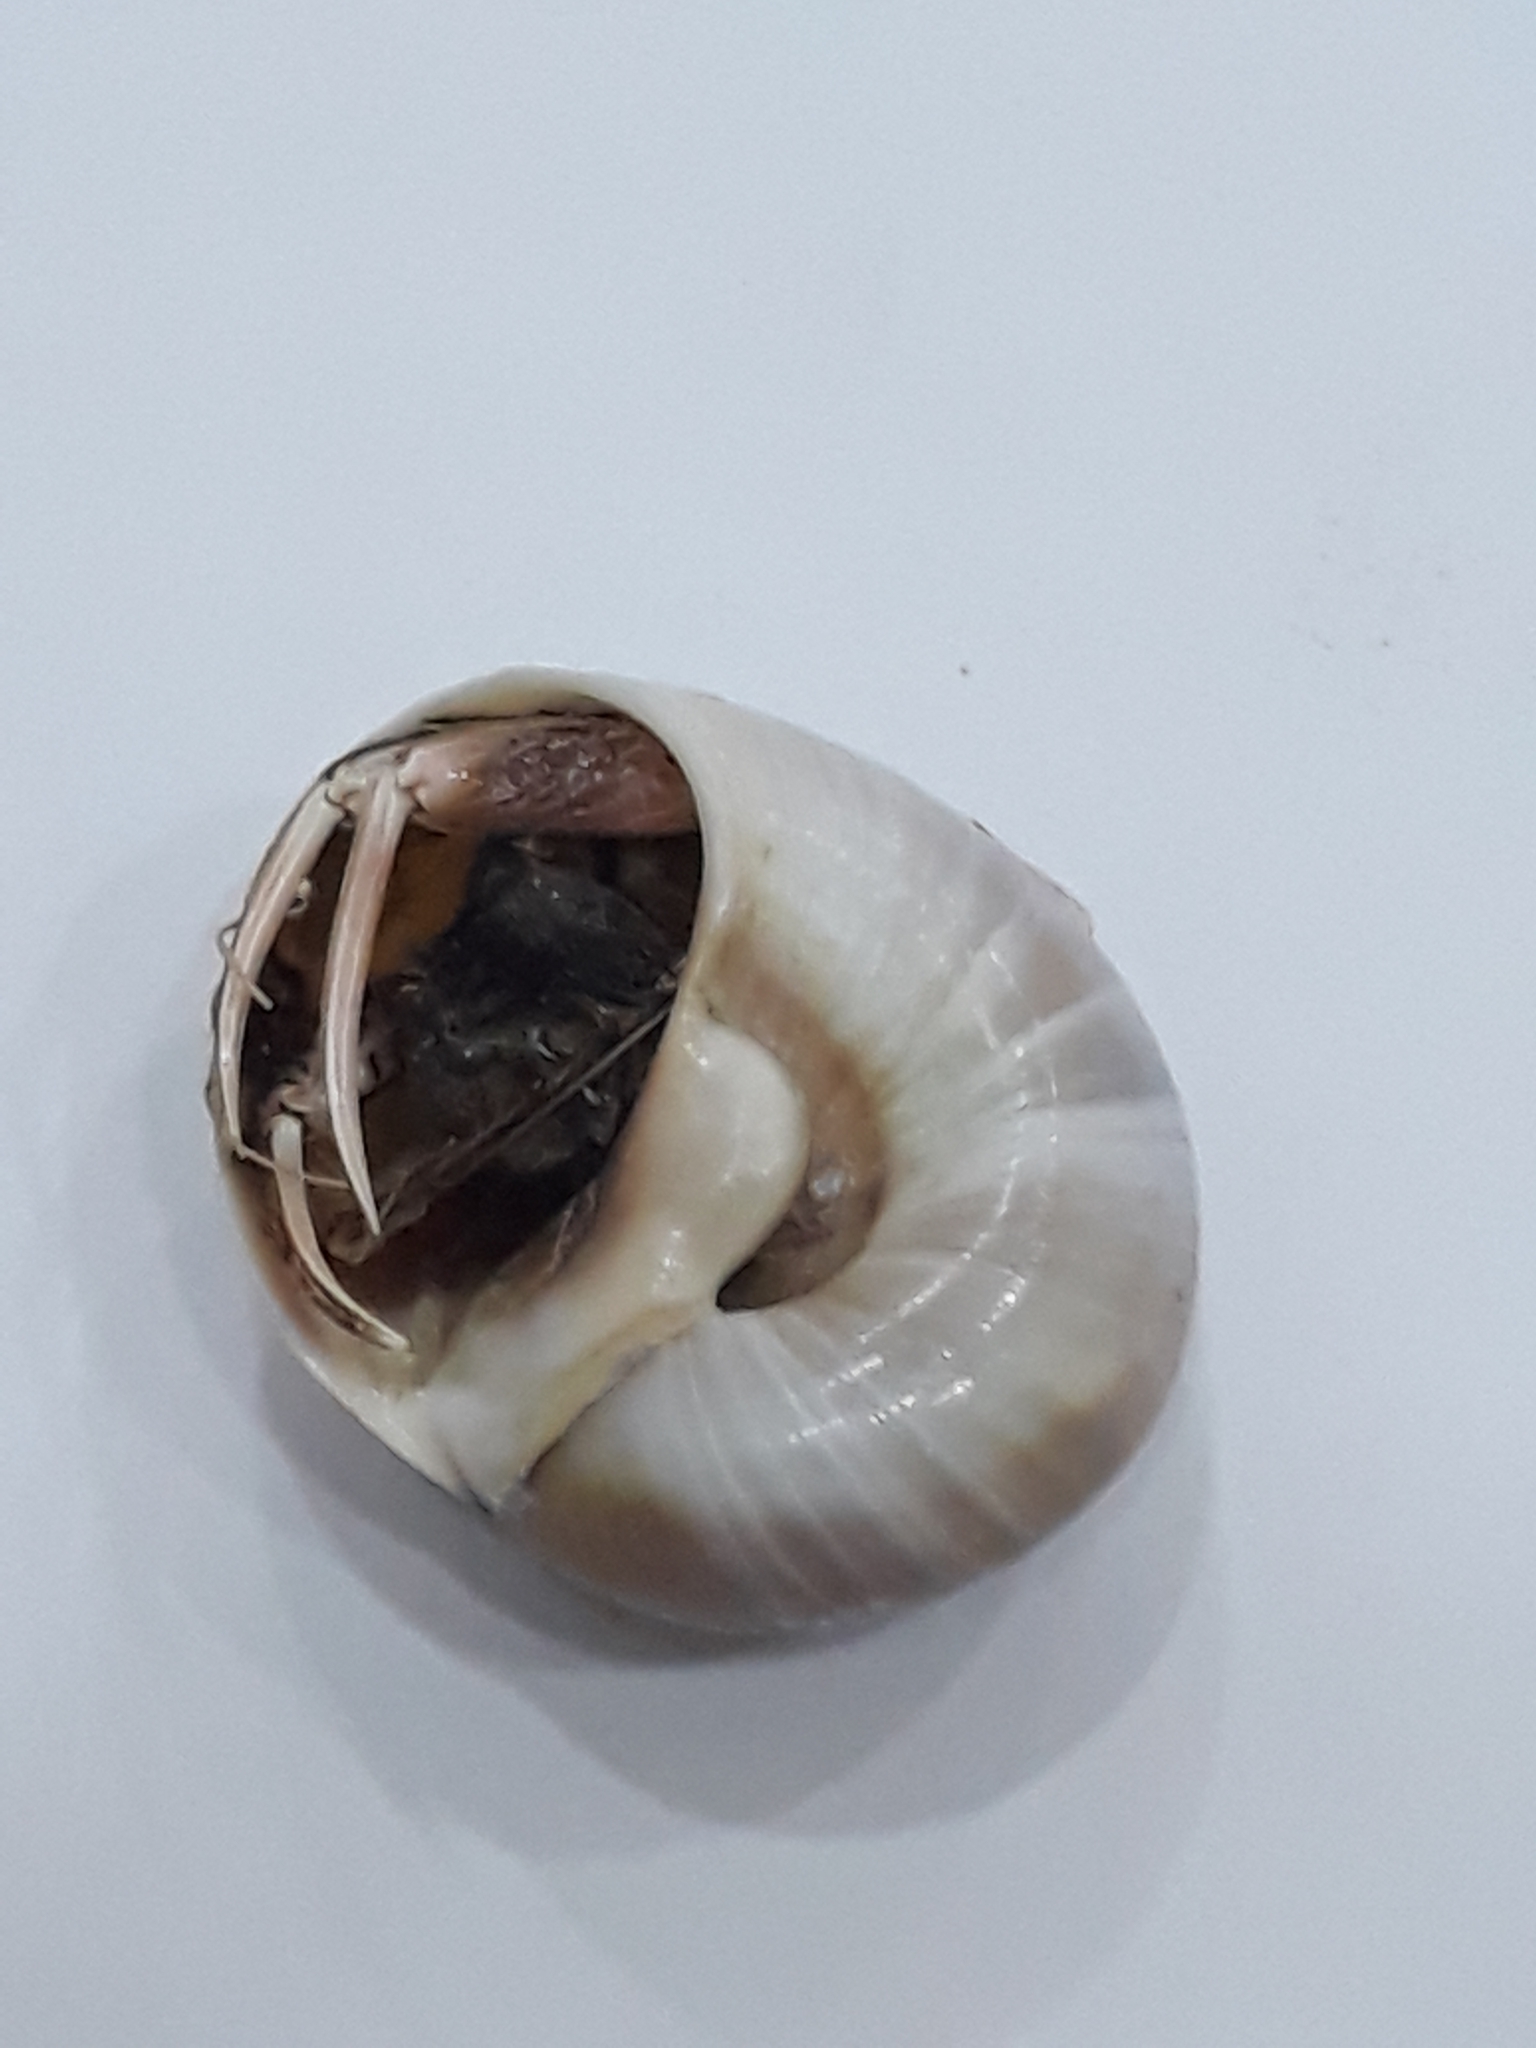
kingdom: Animalia
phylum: Mollusca
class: Gastropoda
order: Littorinimorpha
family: Naticidae
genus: Neverita
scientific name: Neverita josephinia
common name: Josephine's moonsnail
